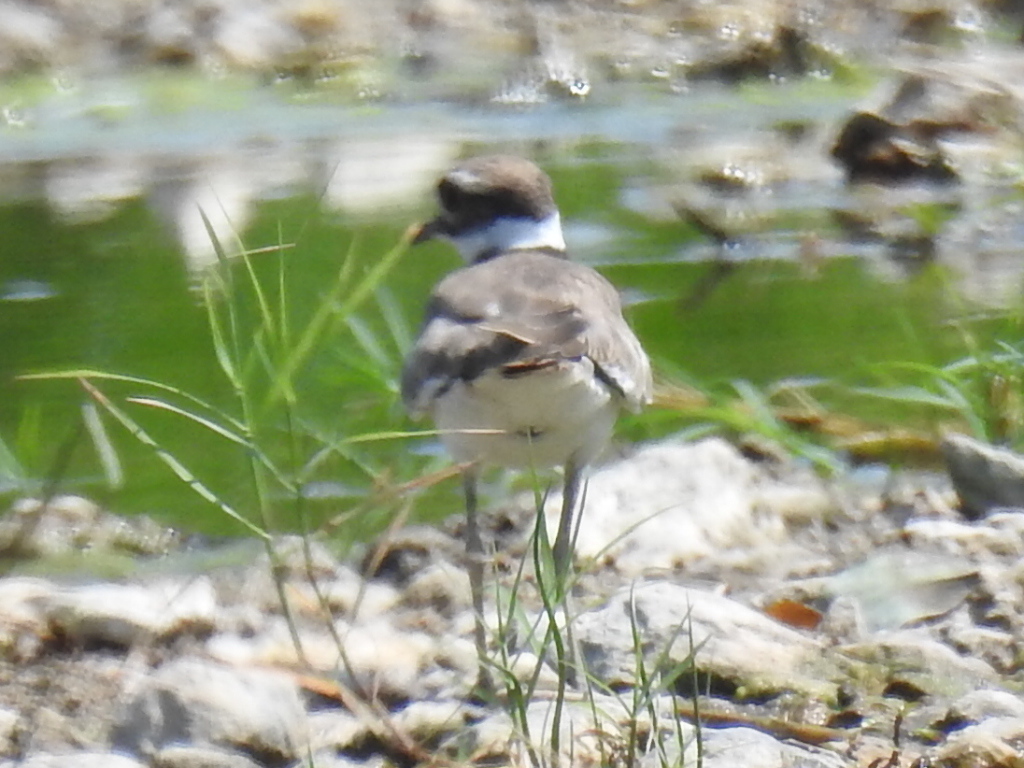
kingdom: Animalia
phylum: Chordata
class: Aves
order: Charadriiformes
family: Charadriidae
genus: Charadrius
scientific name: Charadrius vociferus
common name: Killdeer
